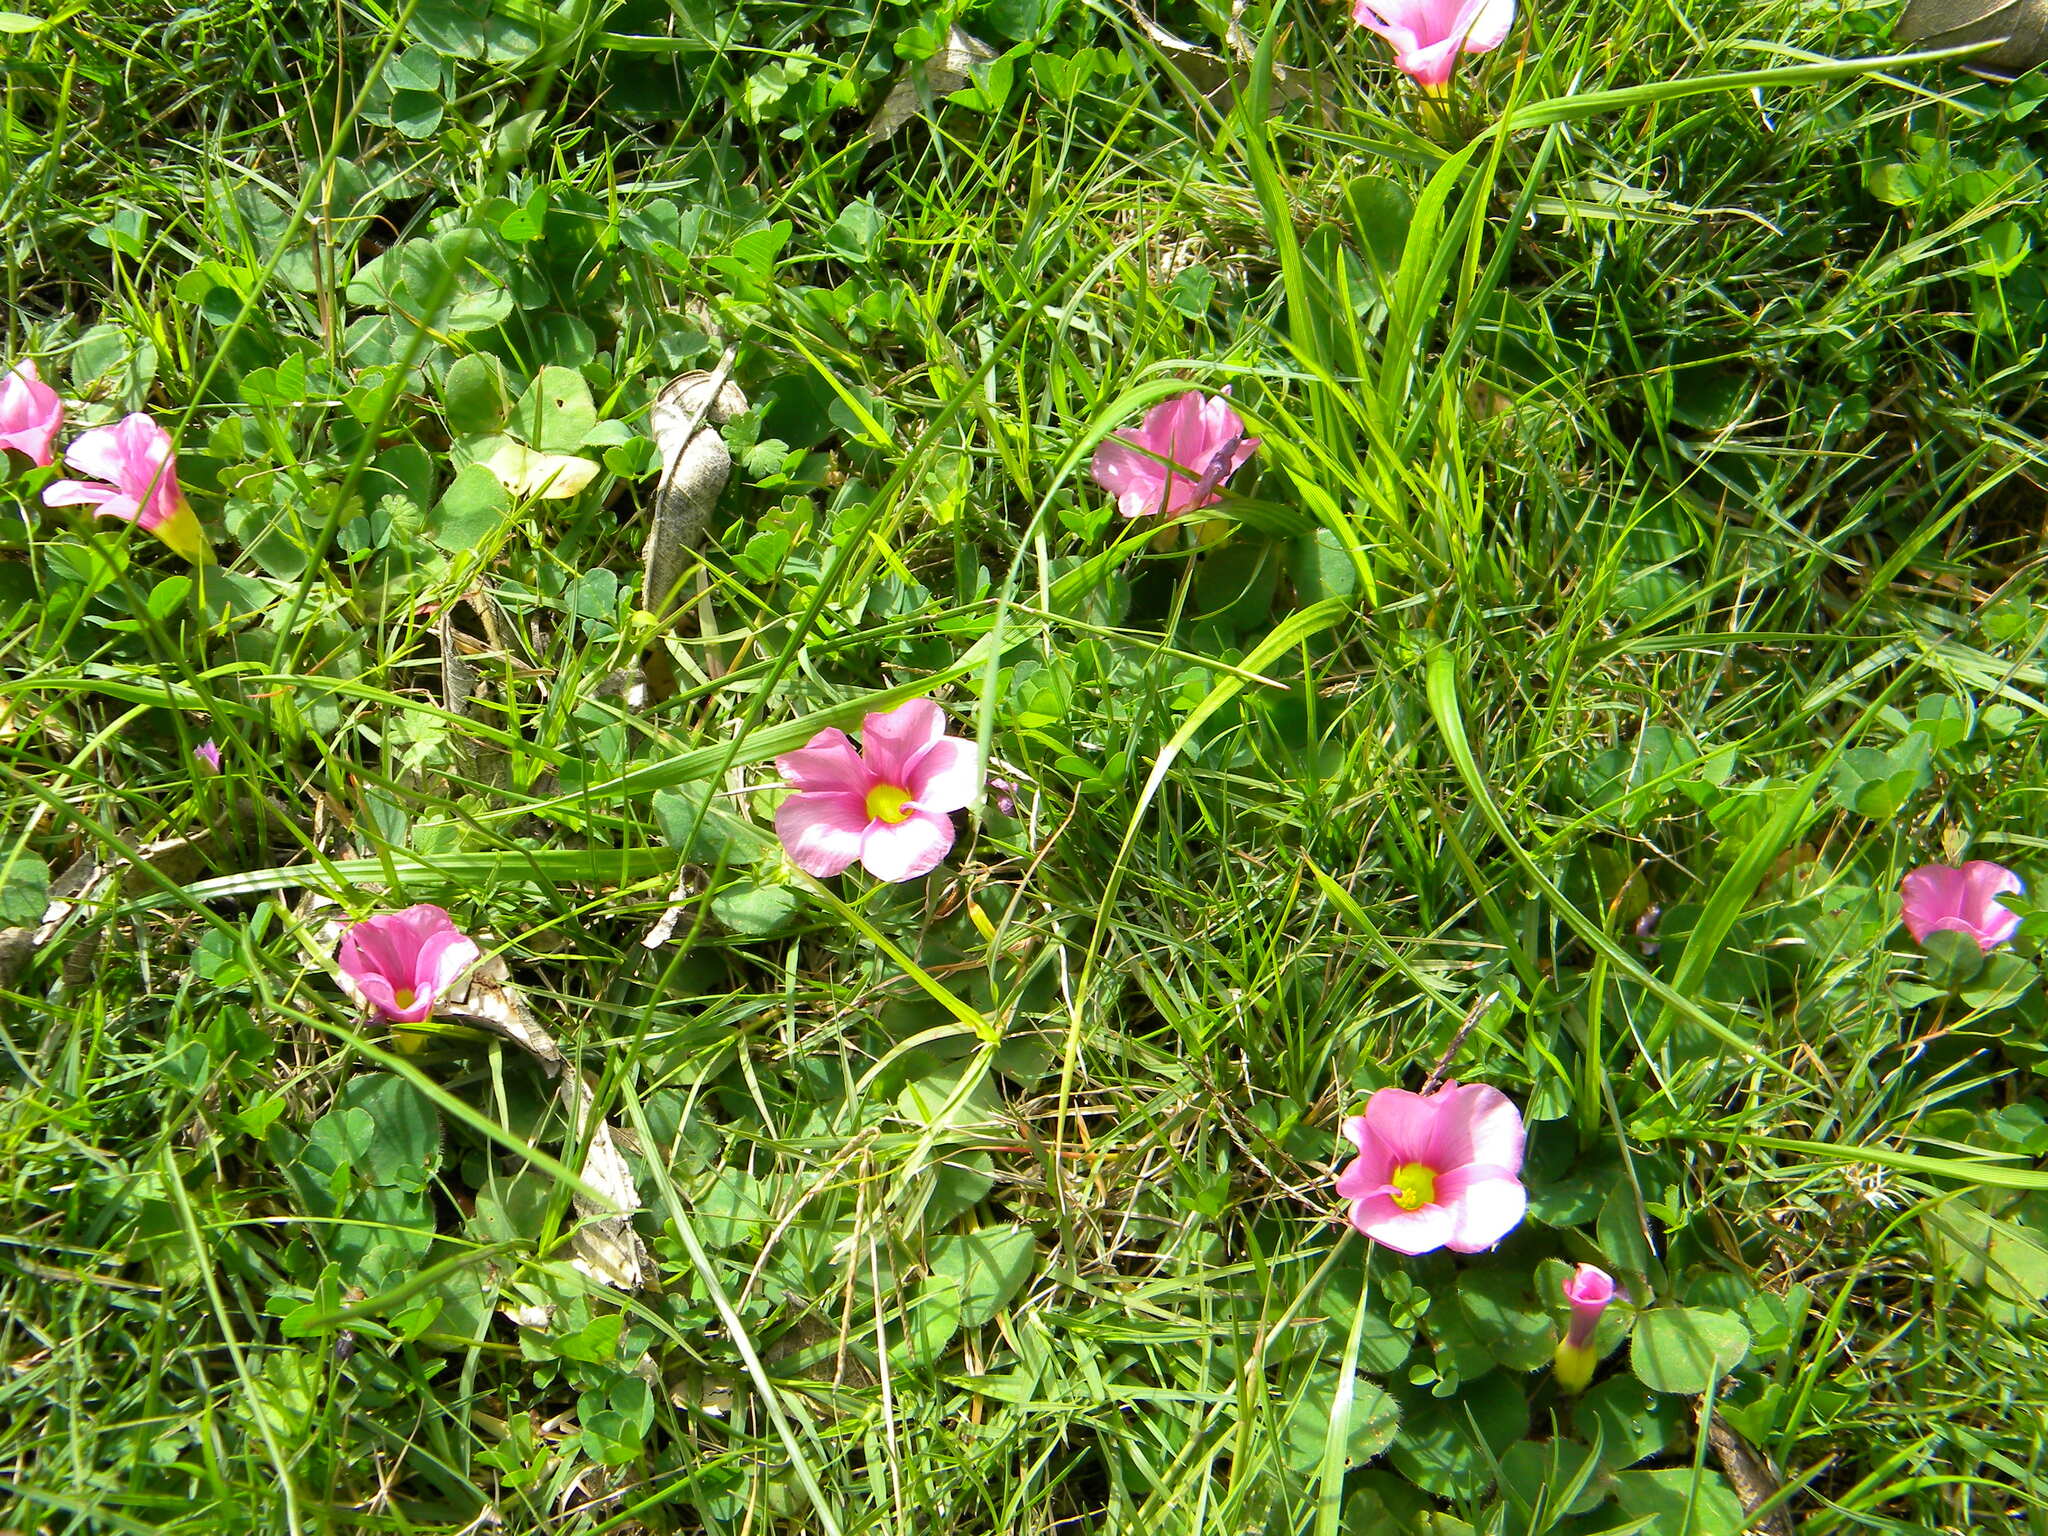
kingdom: Plantae
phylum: Tracheophyta
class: Magnoliopsida
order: Oxalidales
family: Oxalidaceae
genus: Oxalis
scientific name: Oxalis purpurea
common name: Purple woodsorrel
